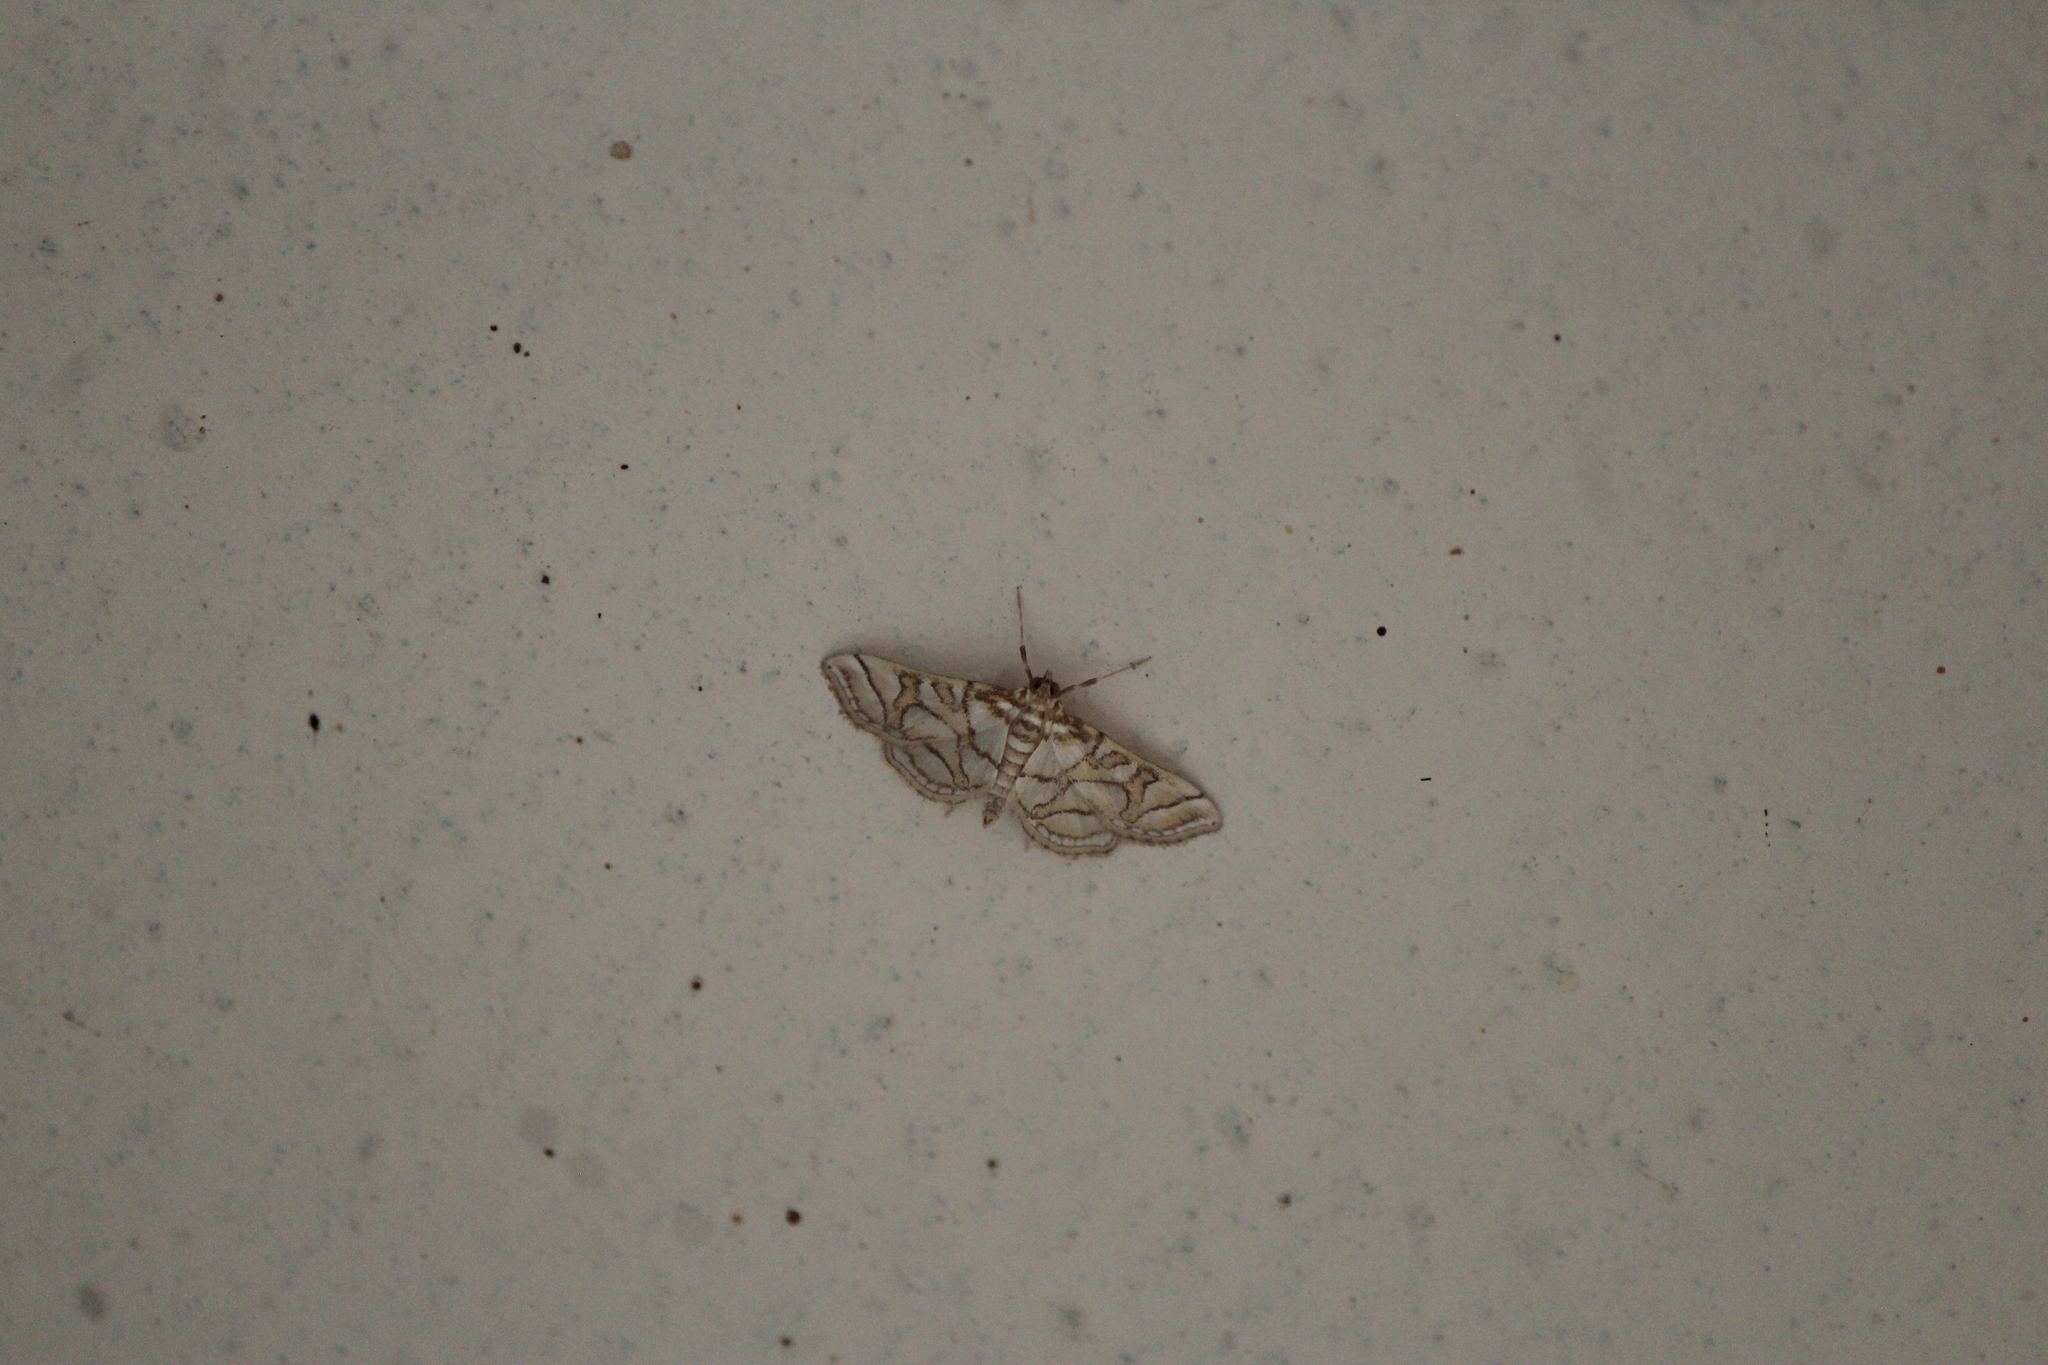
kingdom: Animalia
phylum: Arthropoda
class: Insecta
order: Lepidoptera
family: Crambidae
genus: Pseudopyrausta
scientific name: Pseudopyrausta santatalis
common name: Moth
